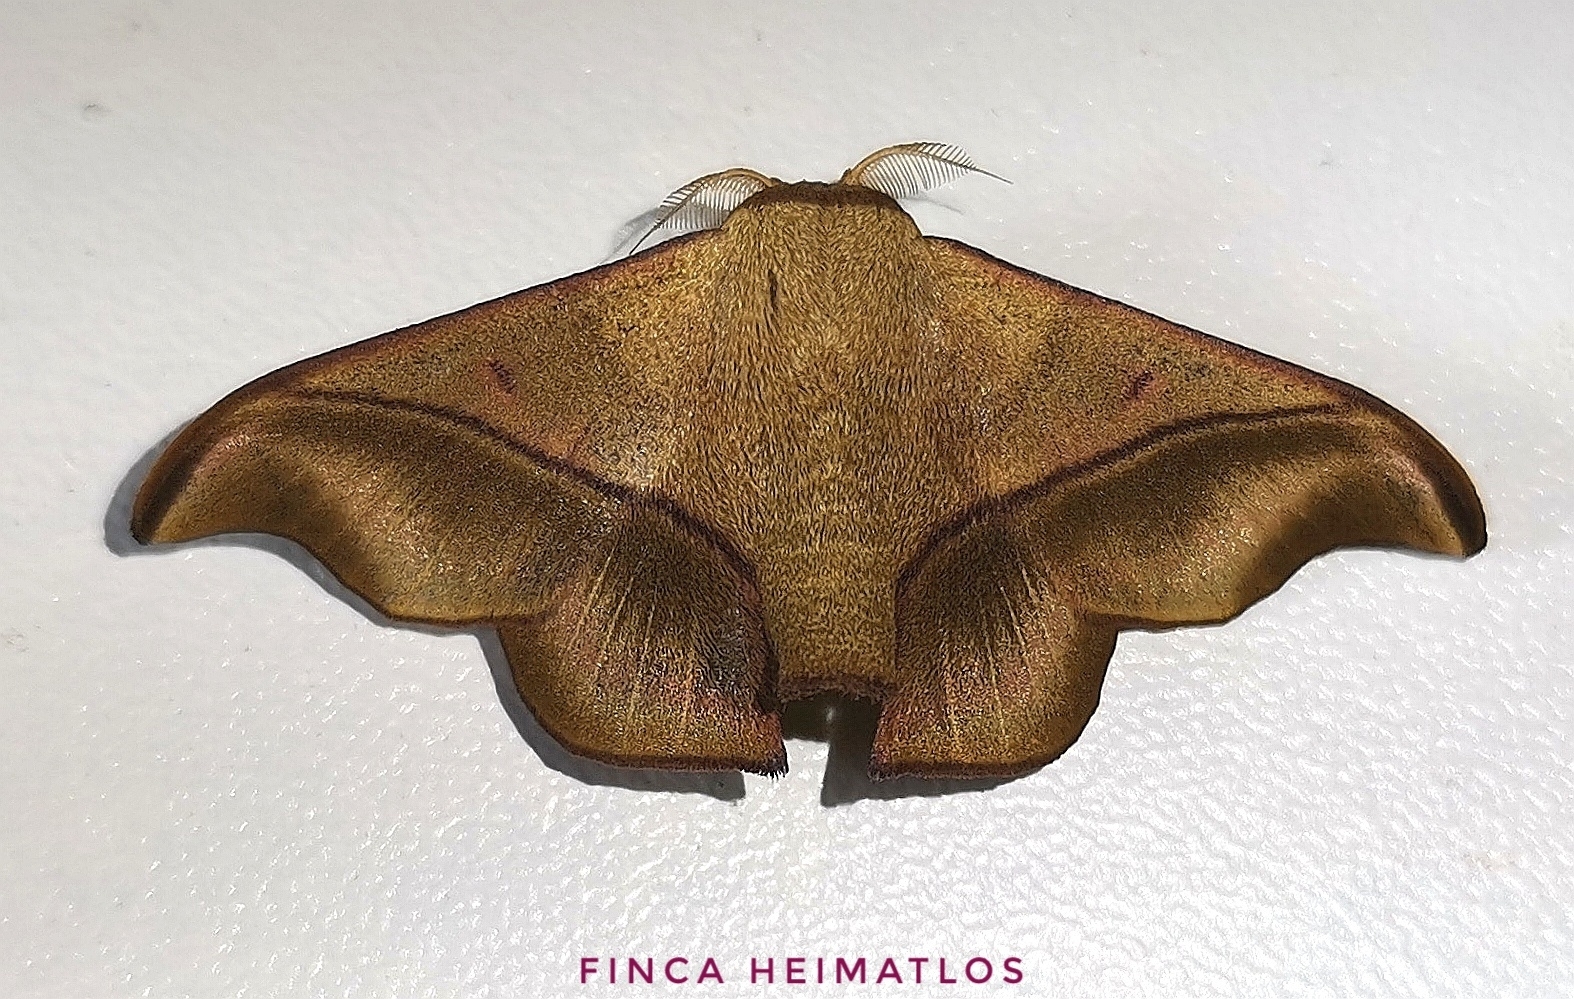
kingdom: Animalia
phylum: Arthropoda
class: Insecta
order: Lepidoptera
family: Mimallonidae
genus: Alheita
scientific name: Alheita anoca
